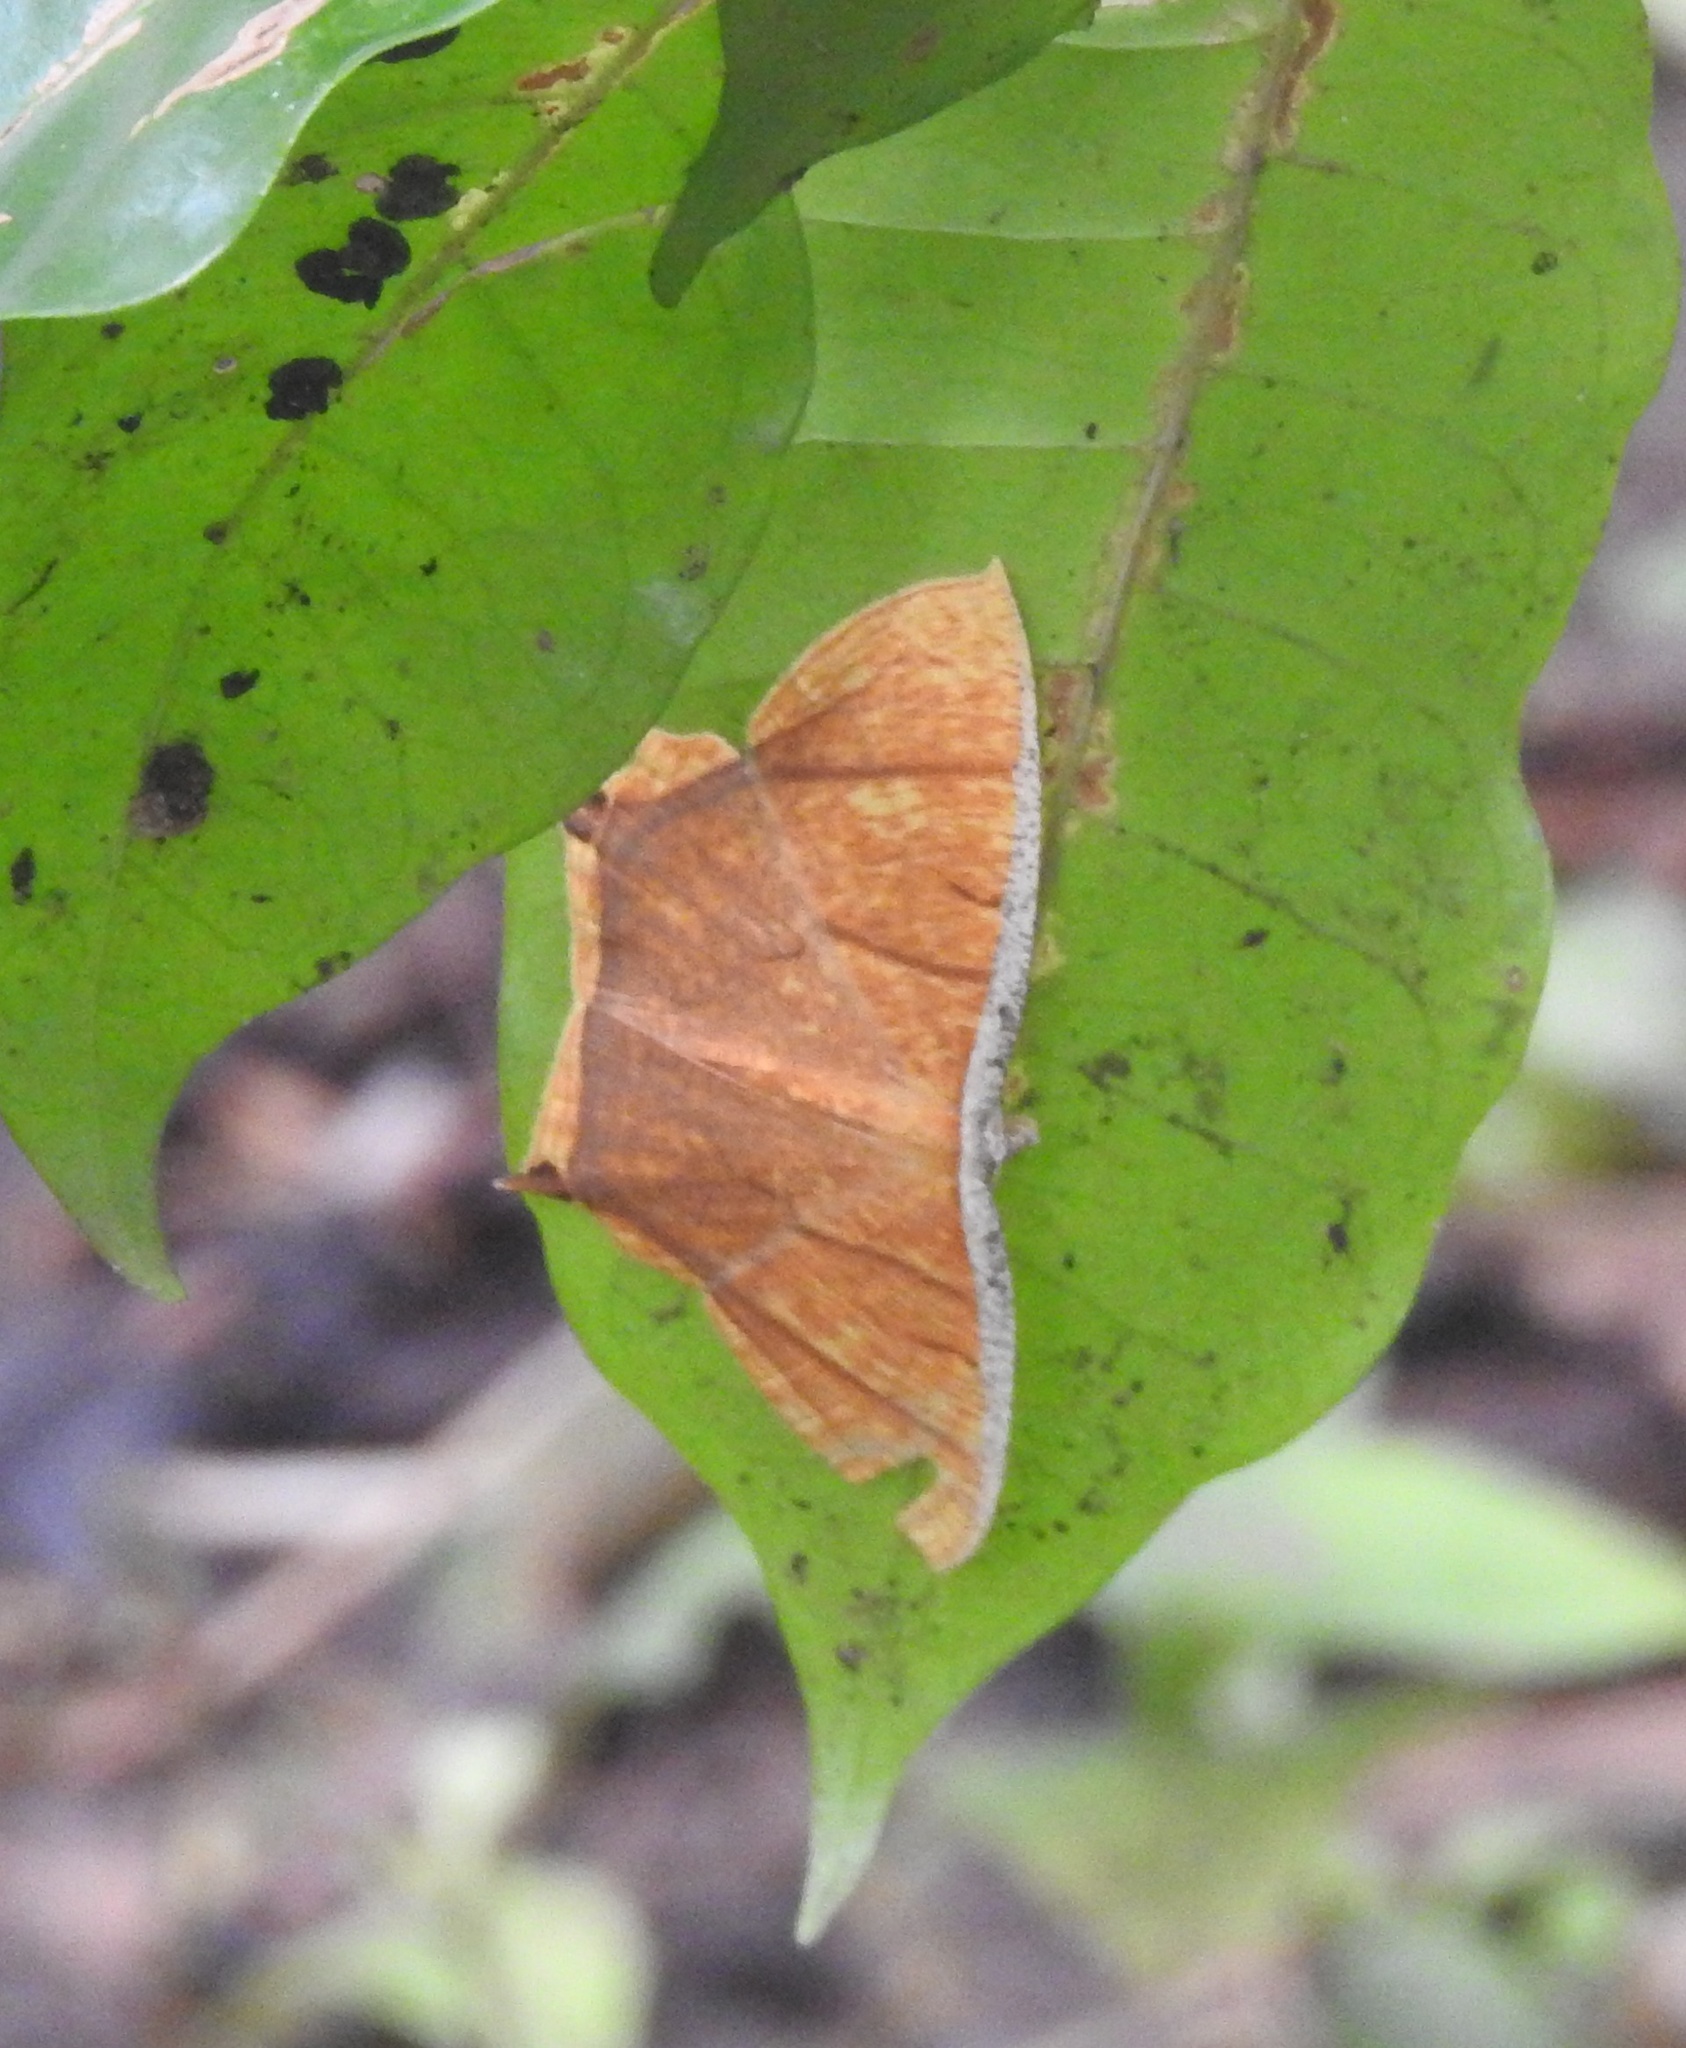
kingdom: Animalia
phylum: Arthropoda
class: Insecta
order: Lepidoptera
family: Geometridae
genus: Thinopteryx
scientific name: Thinopteryx crocoptera
